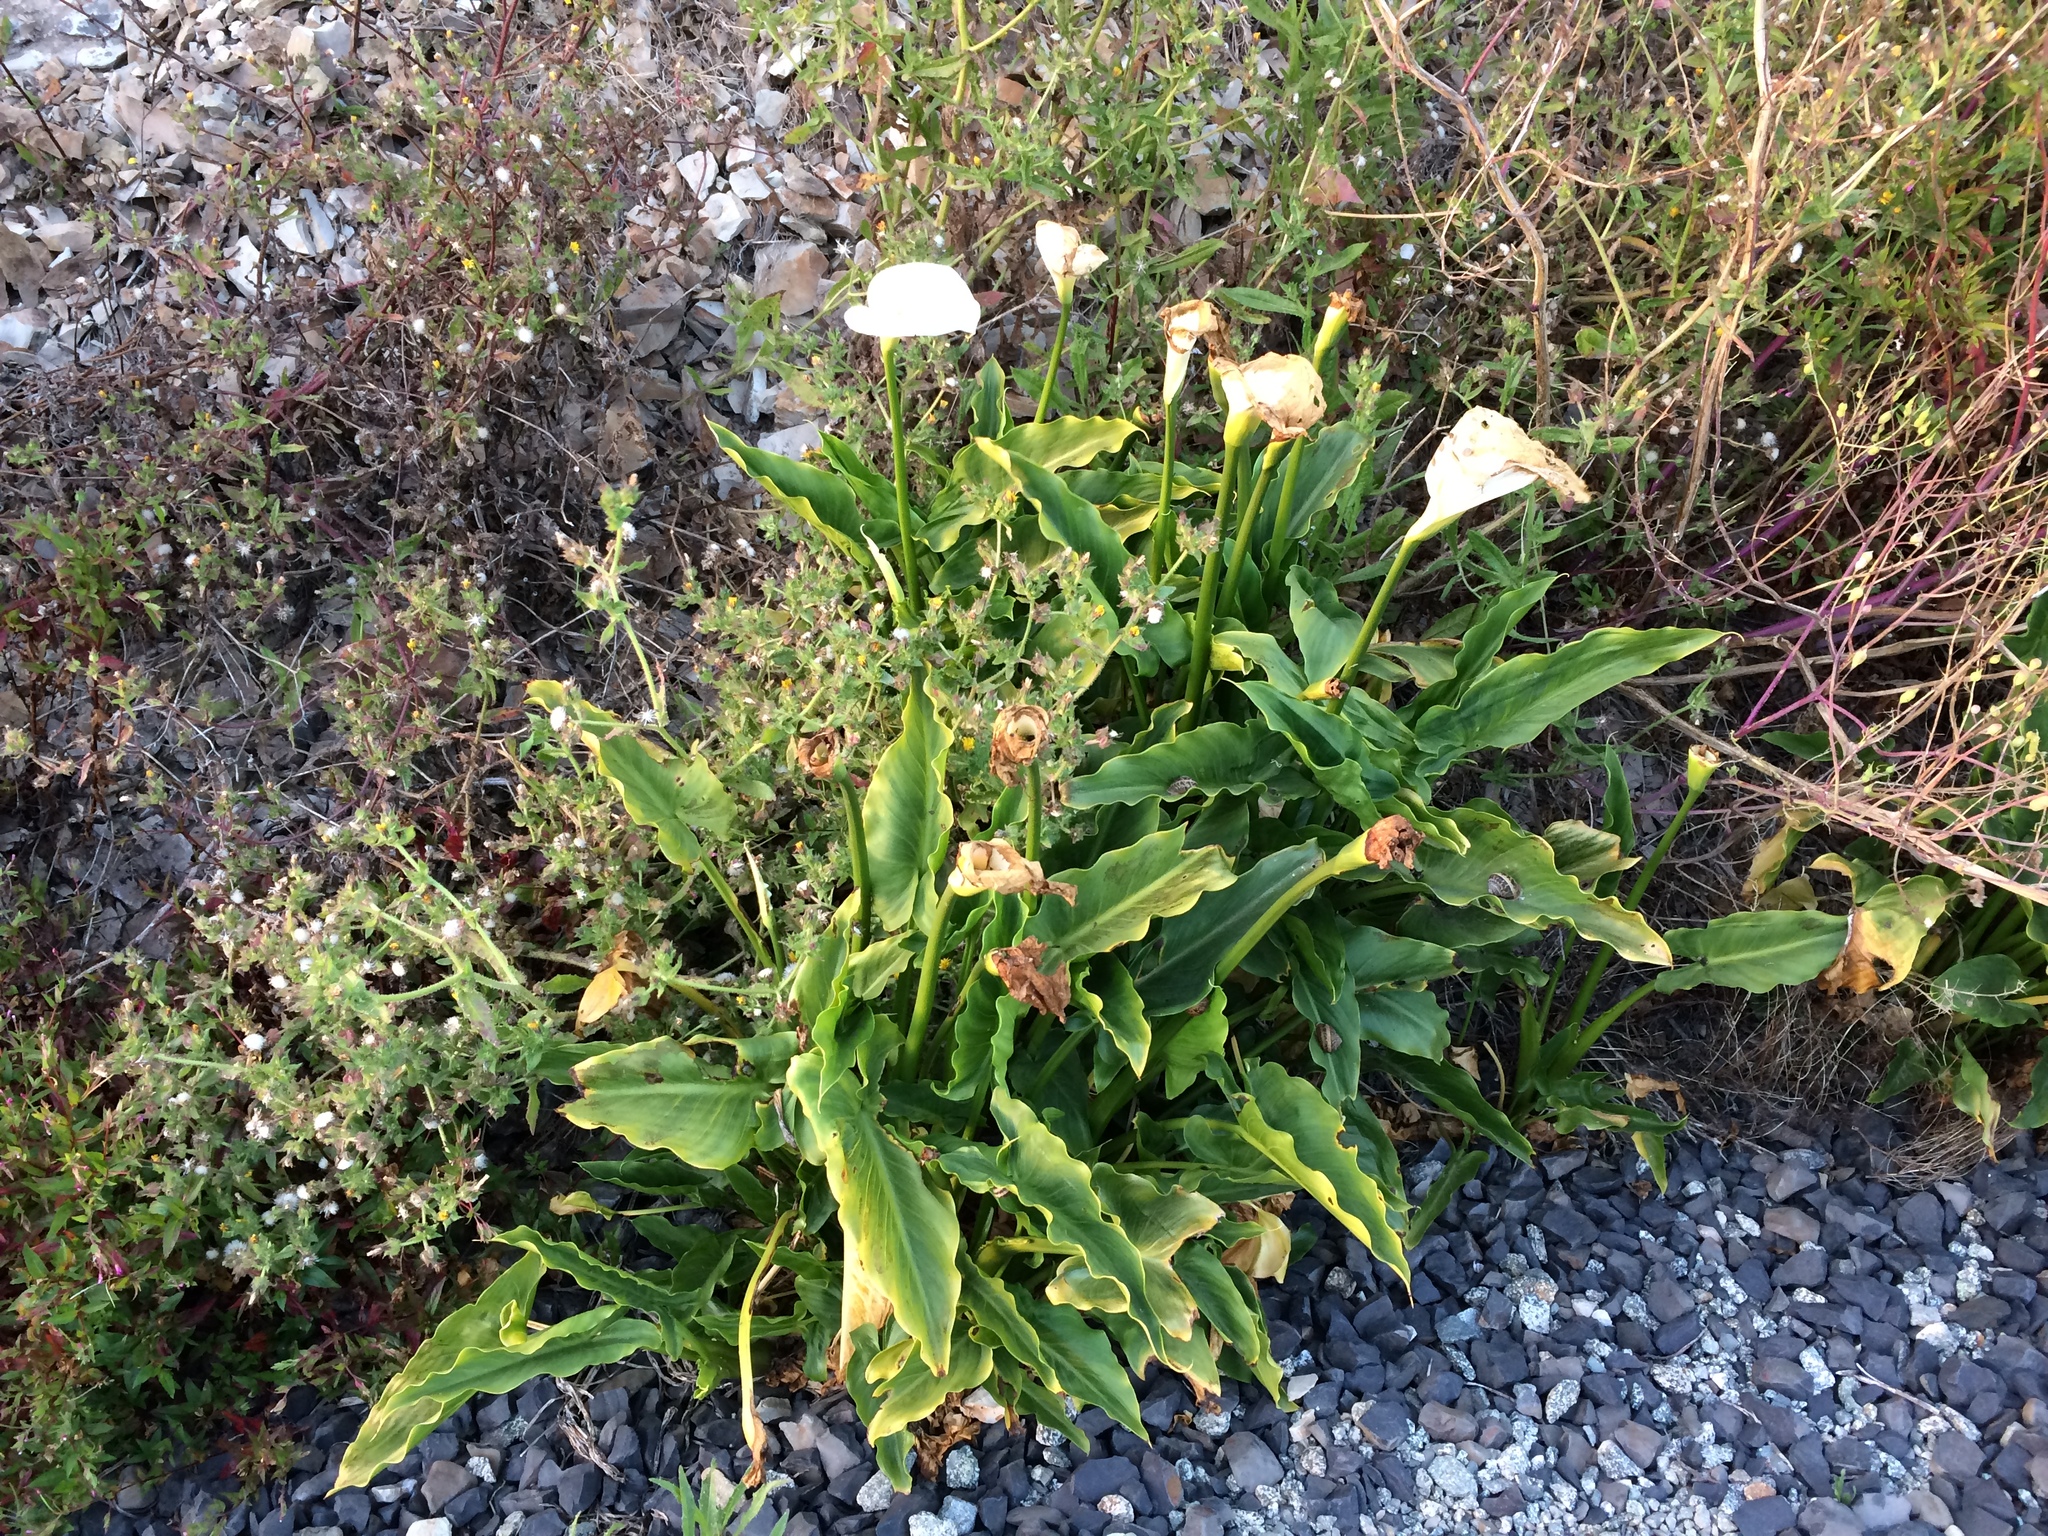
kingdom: Plantae
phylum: Tracheophyta
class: Liliopsida
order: Alismatales
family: Araceae
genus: Zantedeschia
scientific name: Zantedeschia aethiopica
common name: Altar-lily
